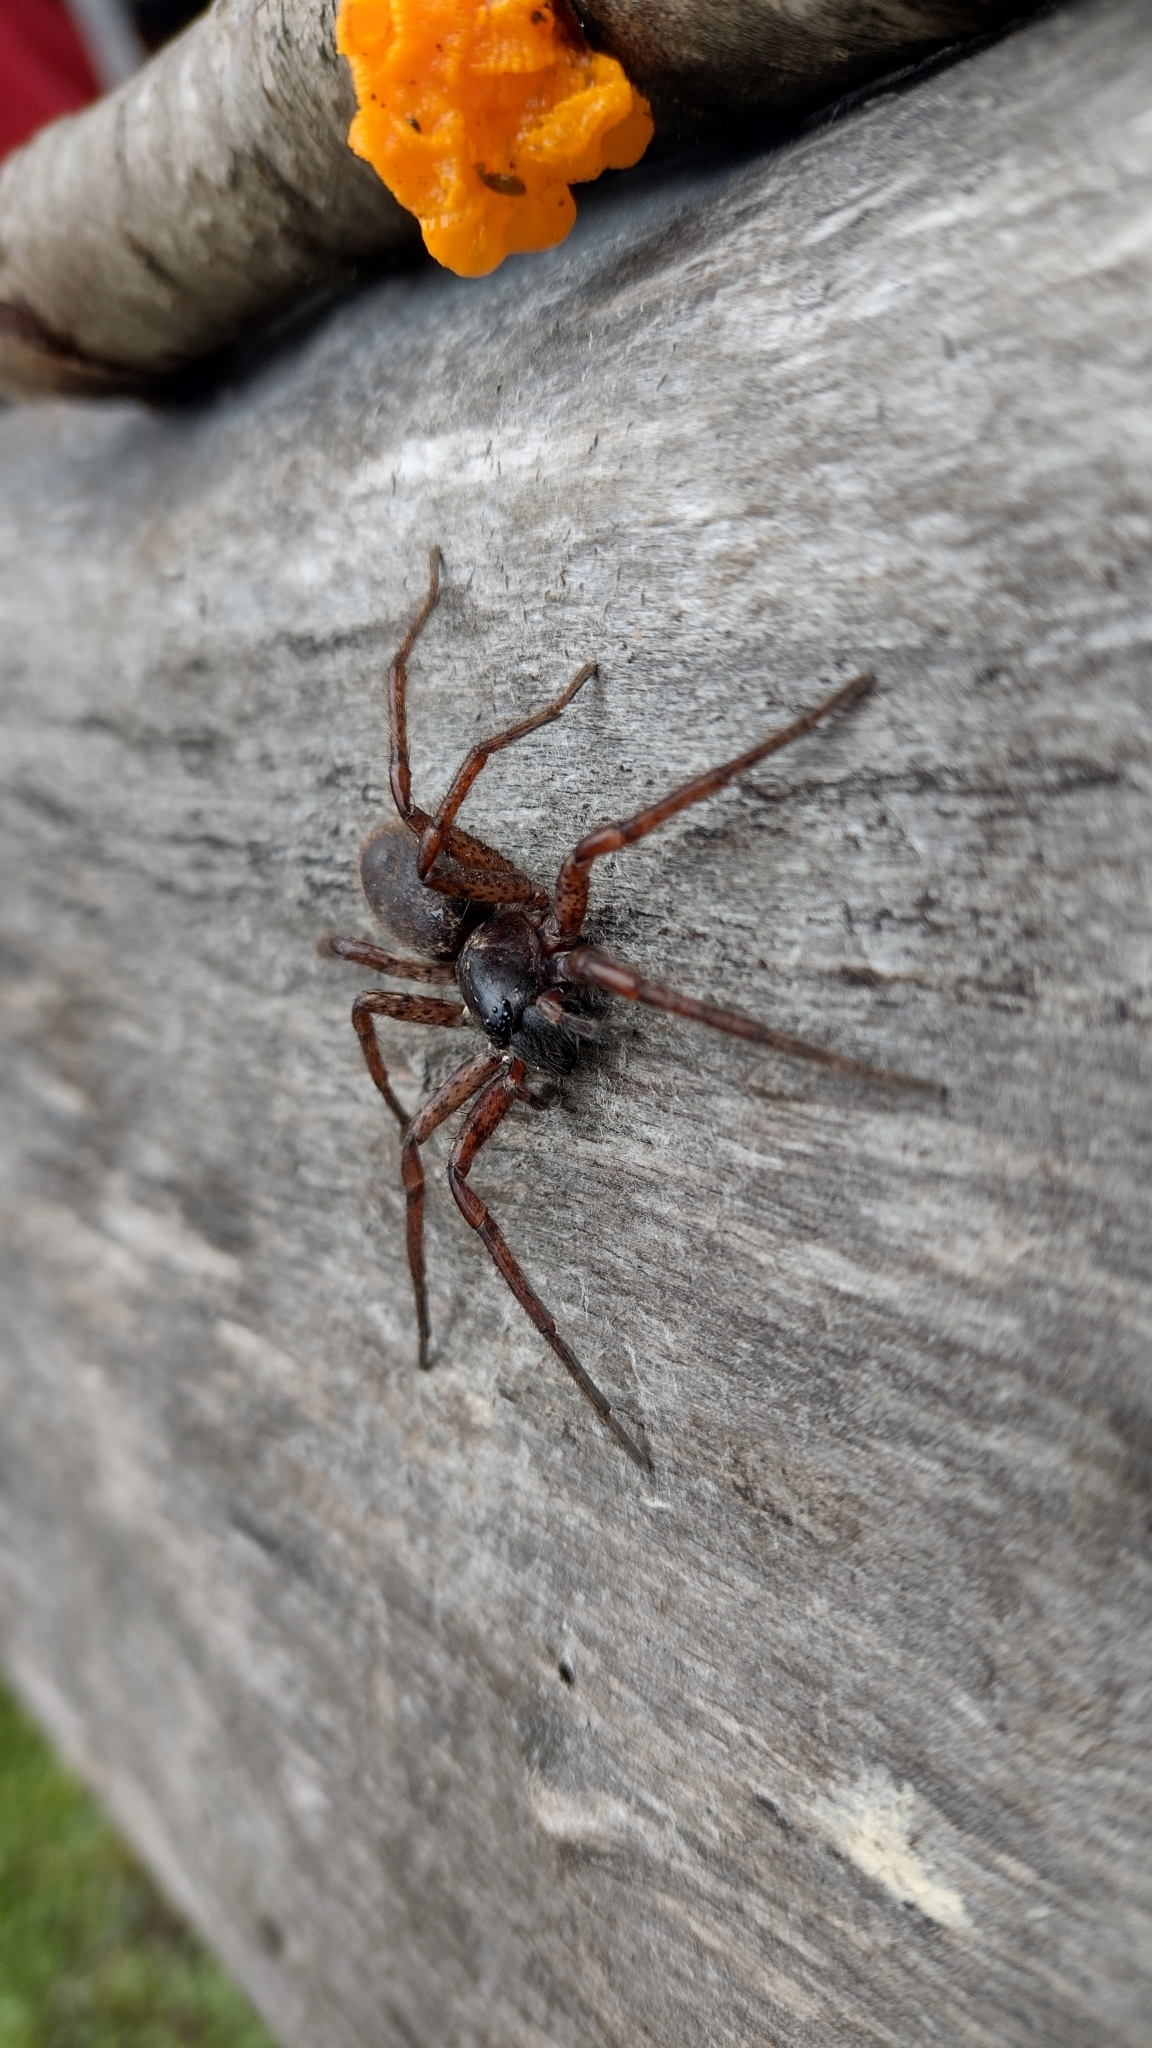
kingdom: Animalia
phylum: Arthropoda
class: Arachnida
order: Araneae
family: Anyphaenidae
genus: Tomopisthes
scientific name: Tomopisthes horrendus
